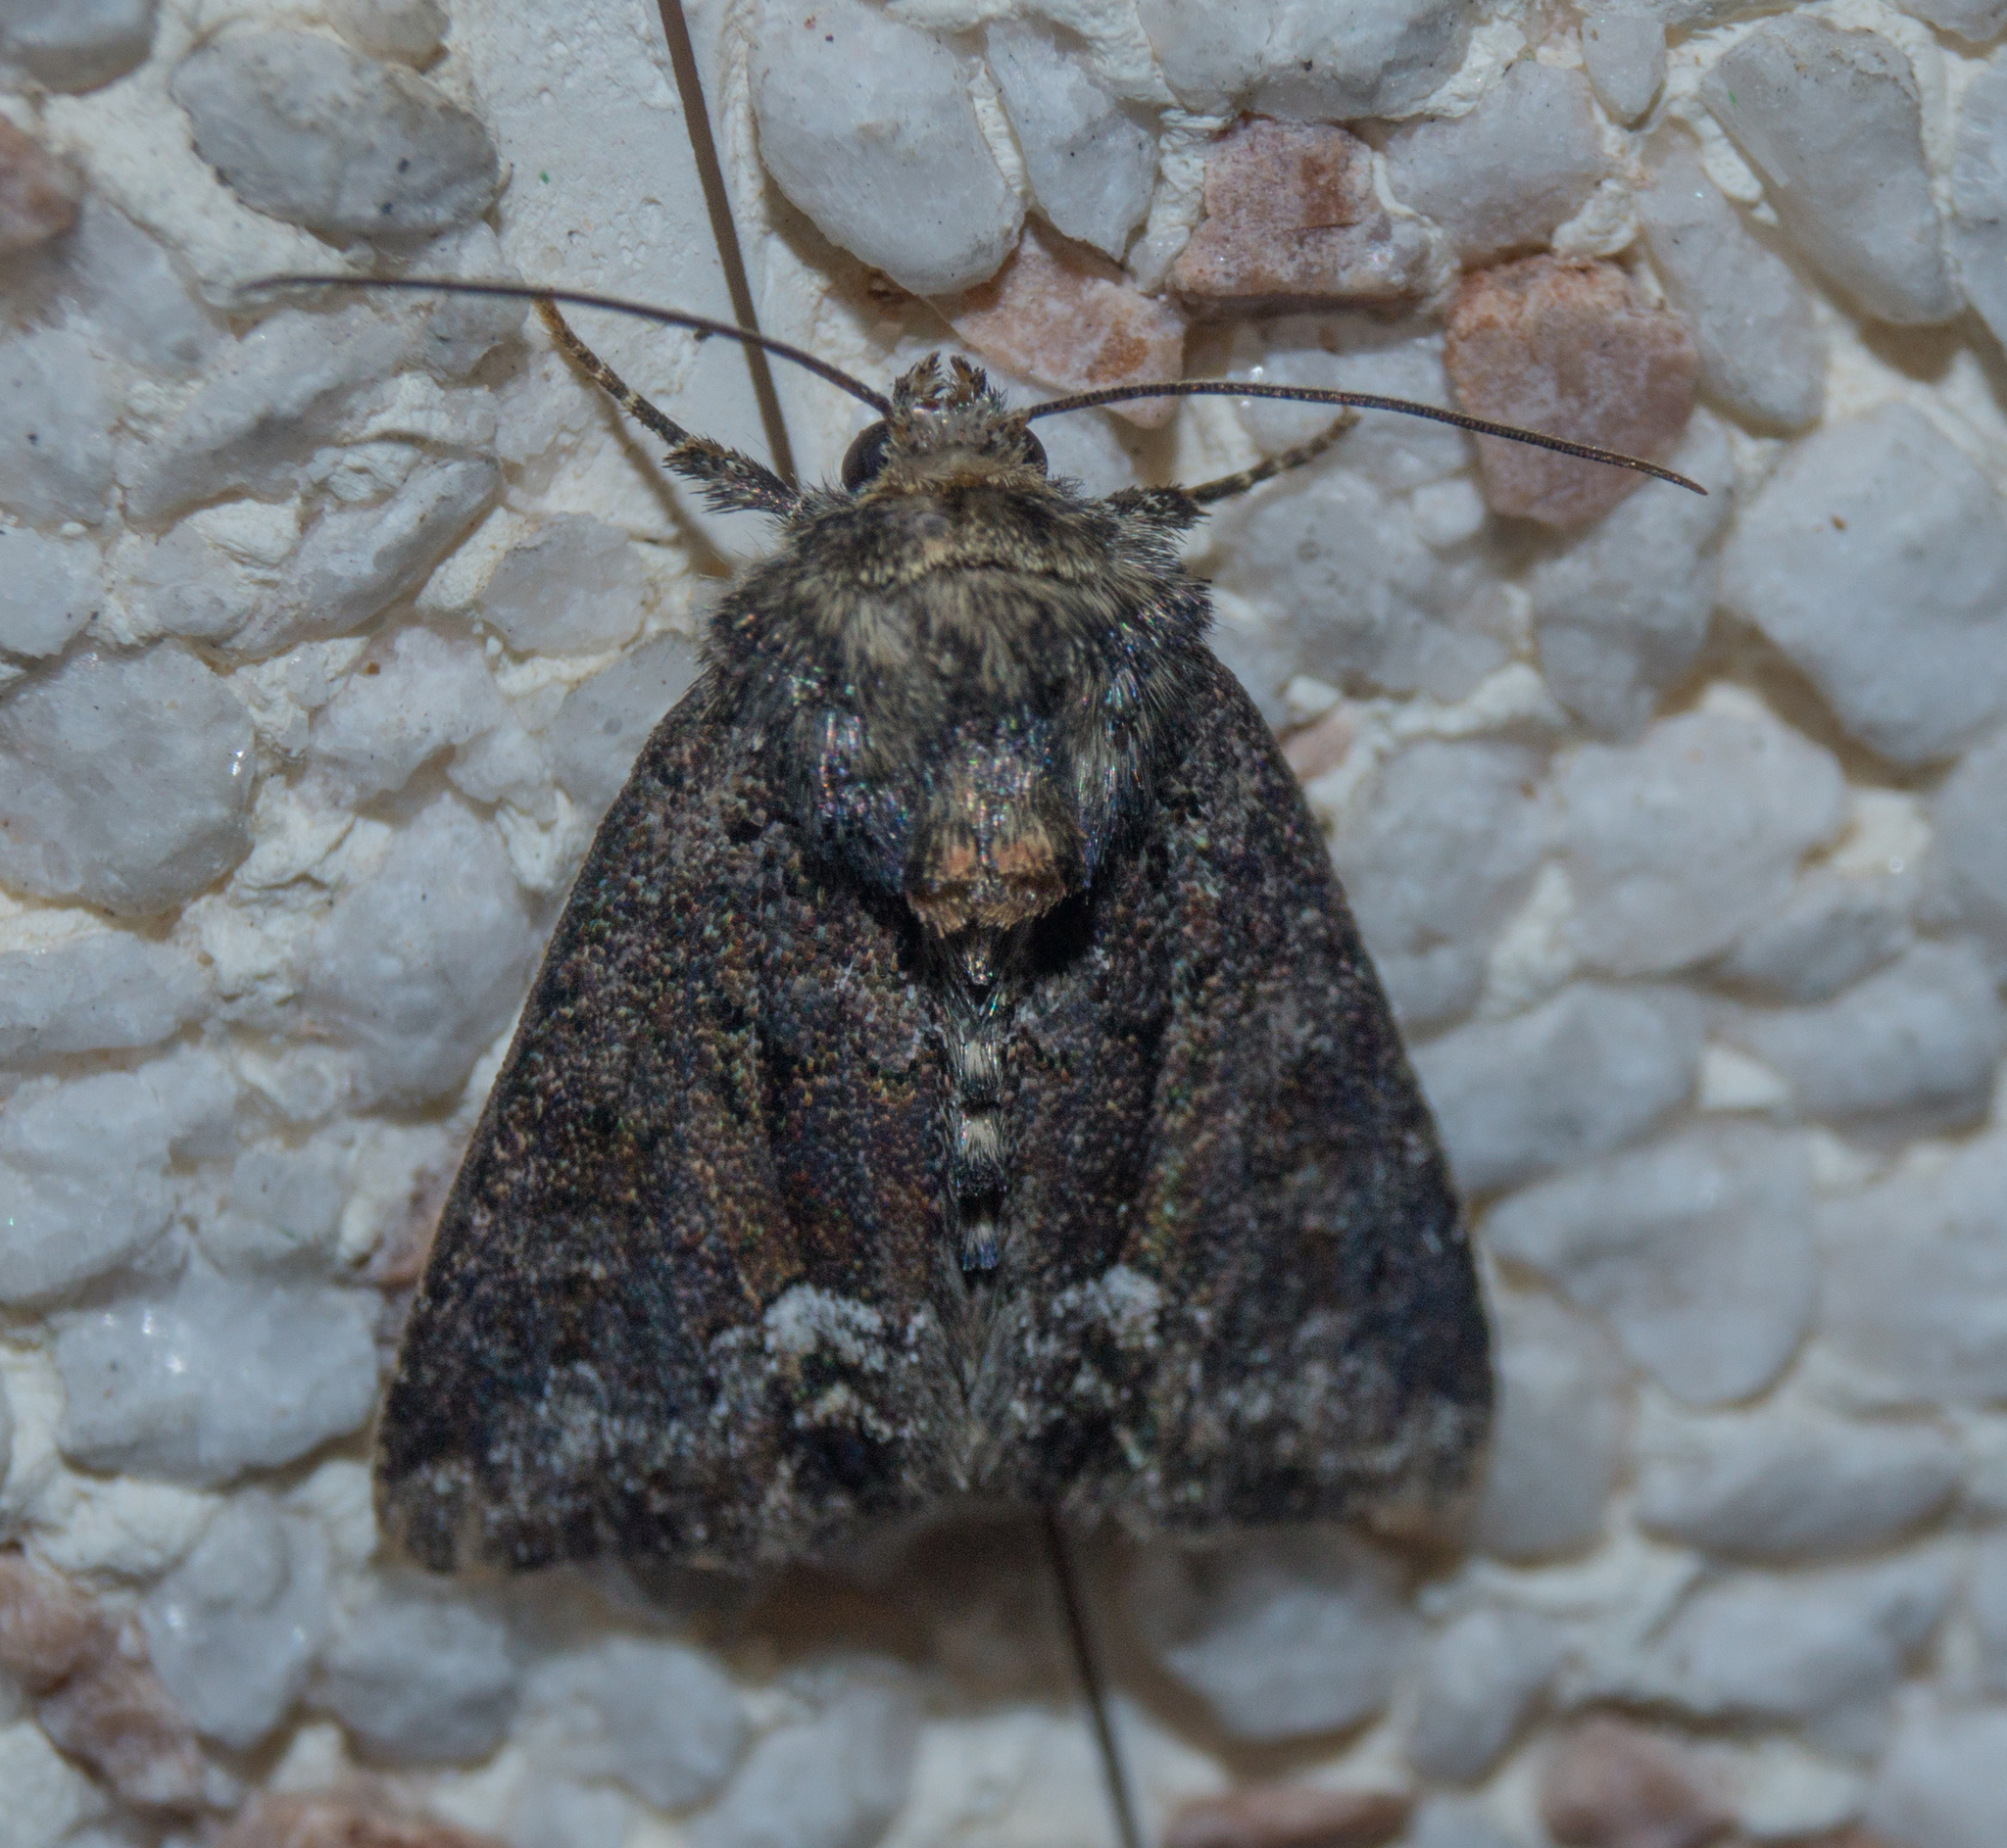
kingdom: Animalia
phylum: Arthropoda
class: Insecta
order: Lepidoptera
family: Noctuidae
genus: Oligia
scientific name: Oligia strigilis
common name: Marbled minor
